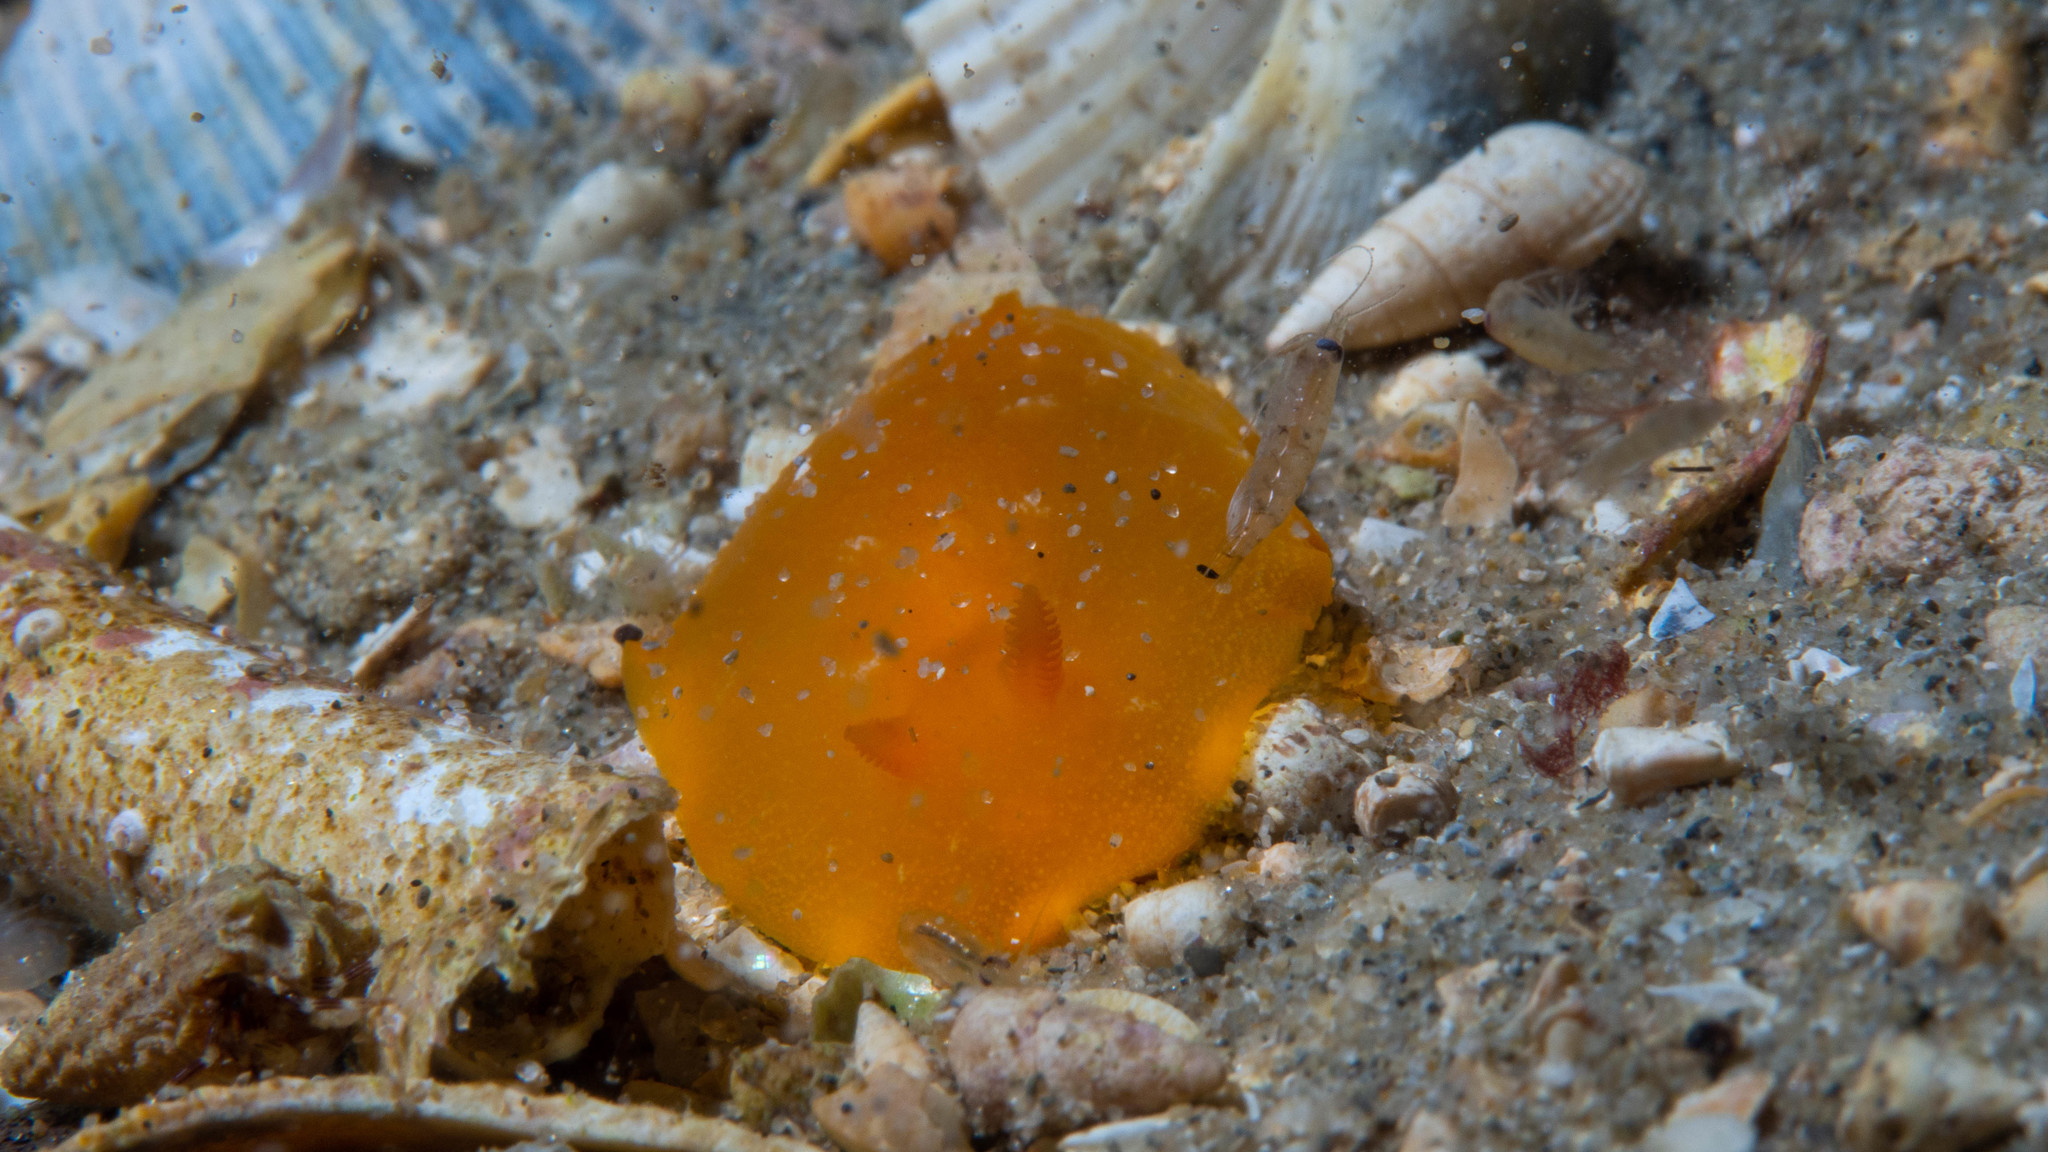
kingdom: Animalia
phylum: Mollusca
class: Gastropoda
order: Nudibranchia
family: Dendrodorididae
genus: Doriopsilla
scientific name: Doriopsilla carneola
